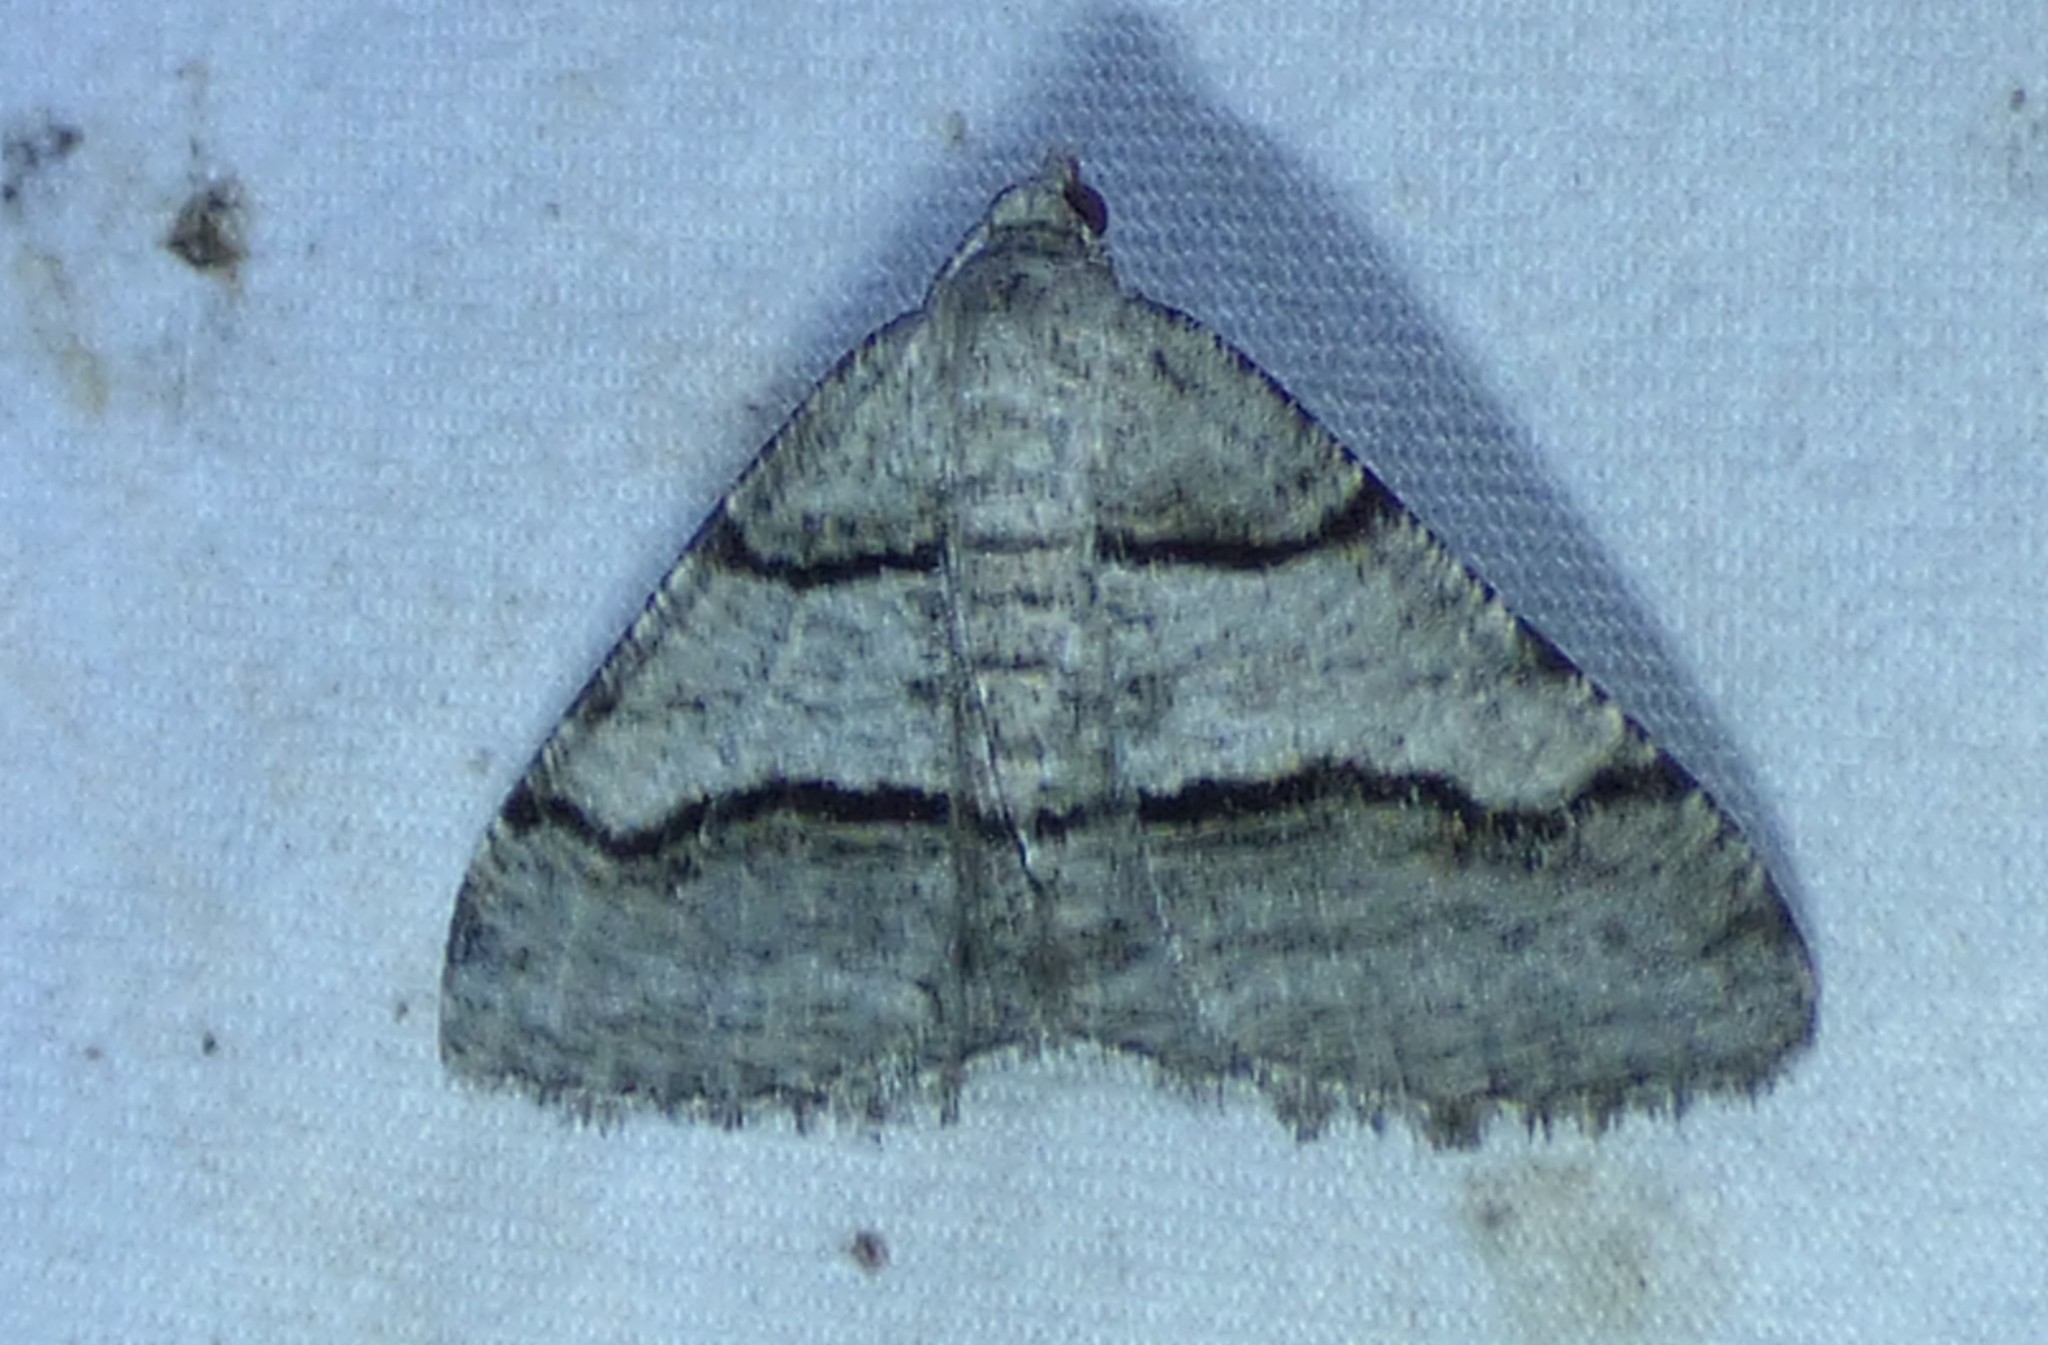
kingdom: Animalia
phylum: Arthropoda
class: Insecta
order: Lepidoptera
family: Geometridae
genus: Digrammia
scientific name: Digrammia continuata
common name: Curve-lined angle
